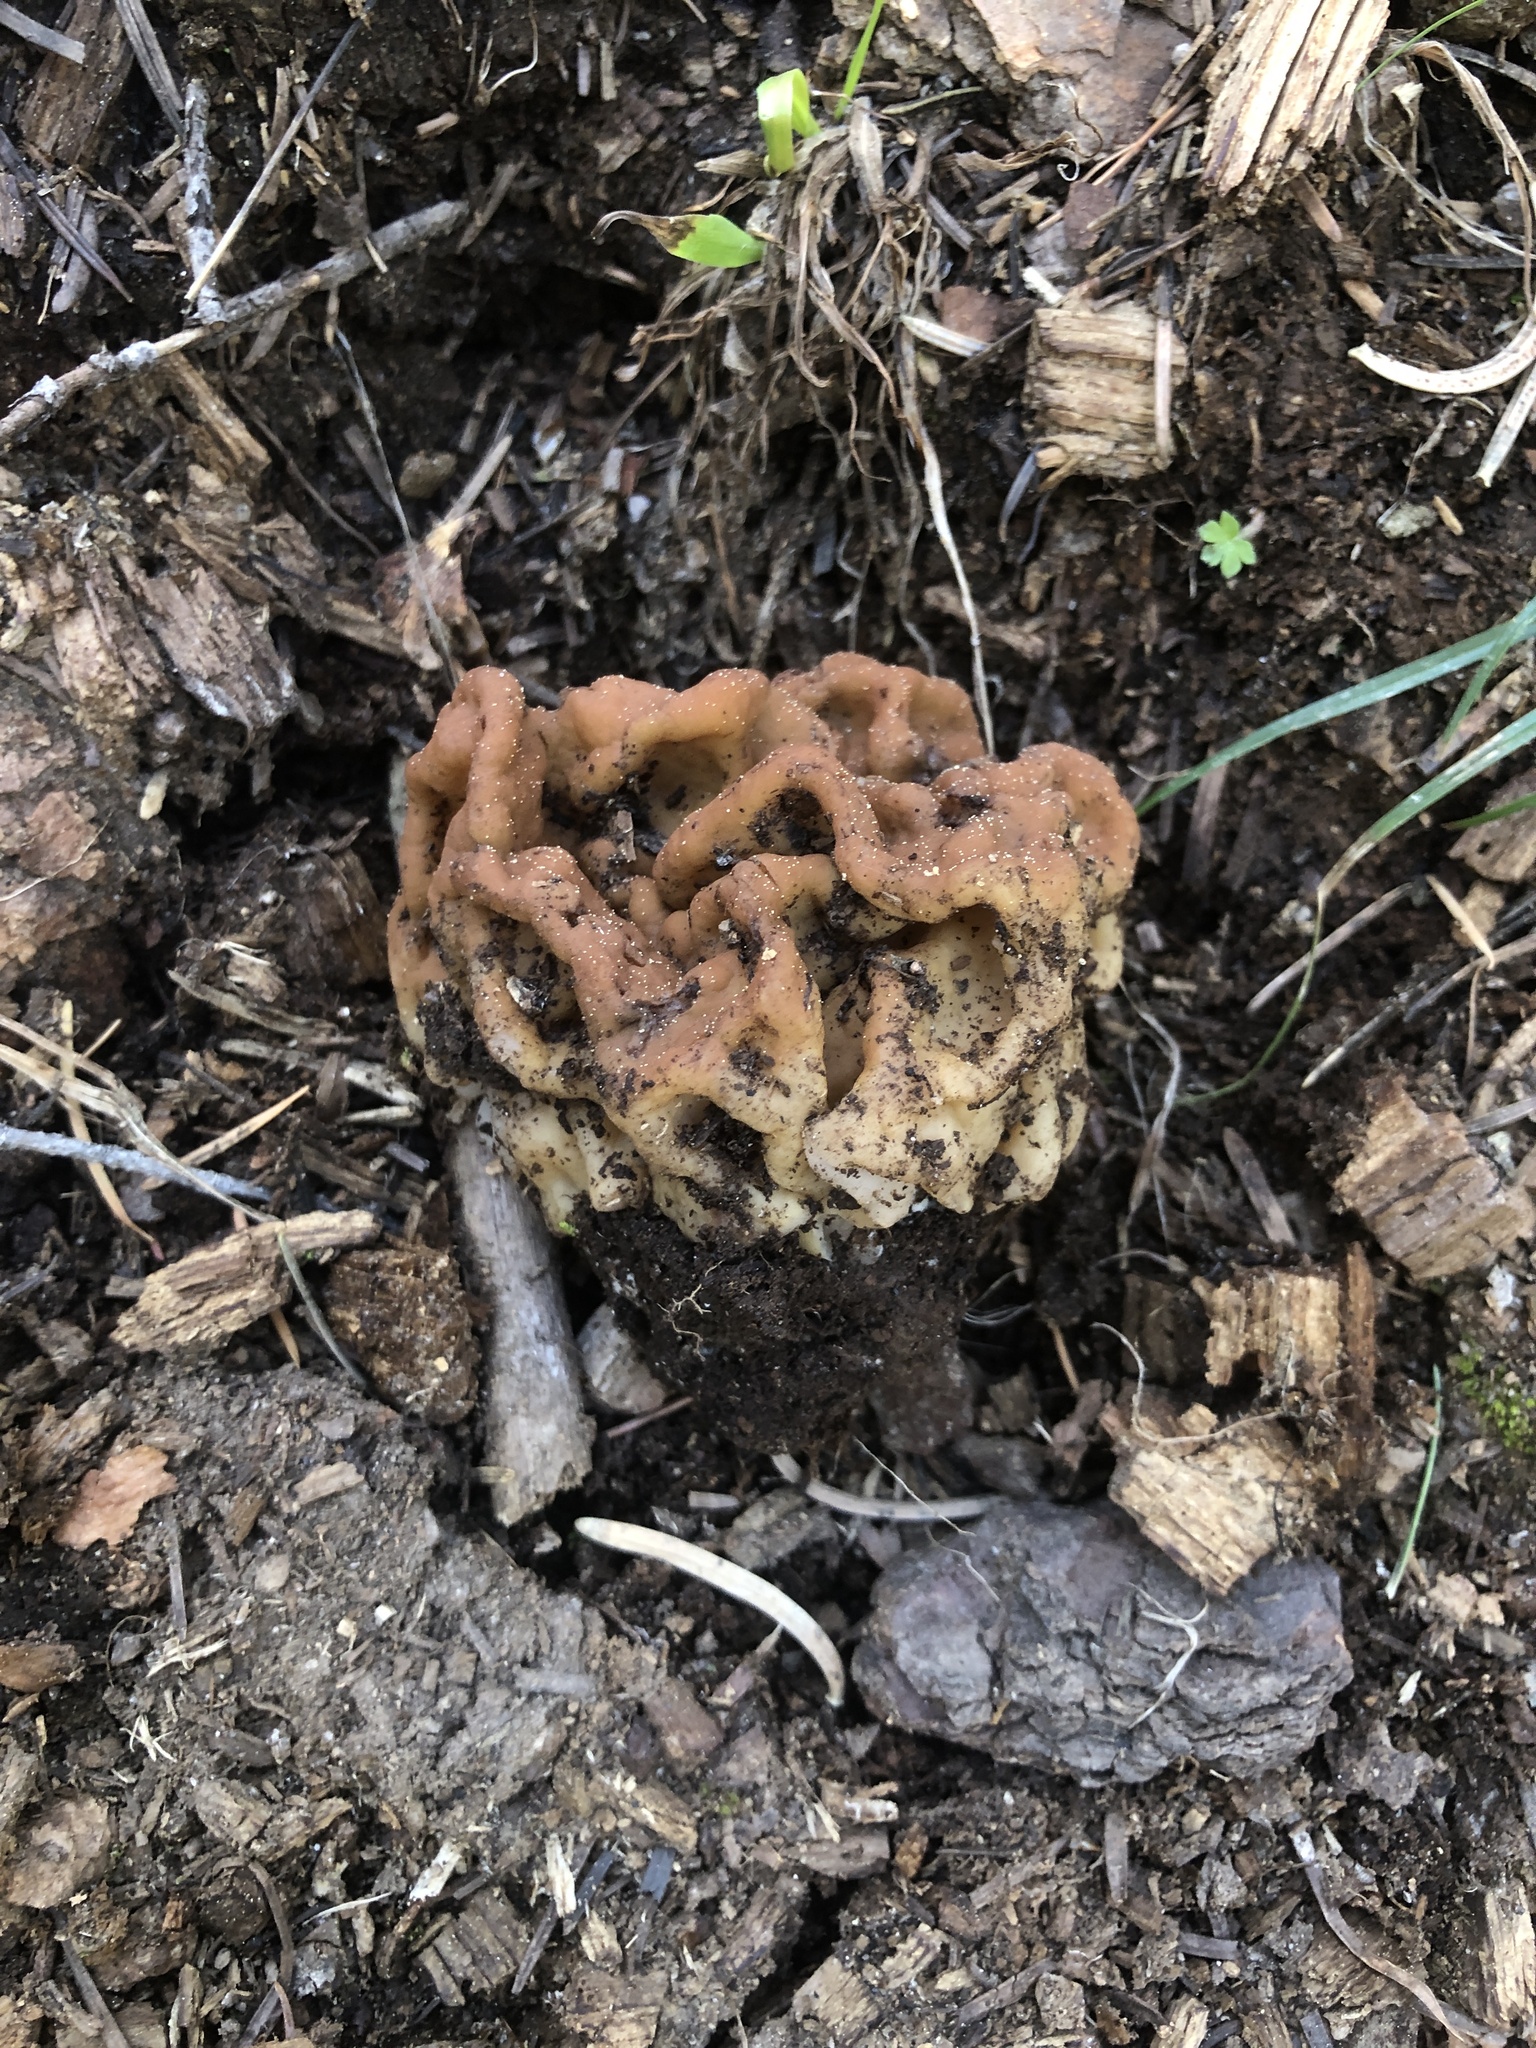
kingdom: Fungi
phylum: Ascomycota
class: Pezizomycetes
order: Pezizales
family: Discinaceae
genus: Discina
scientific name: Discina montana
